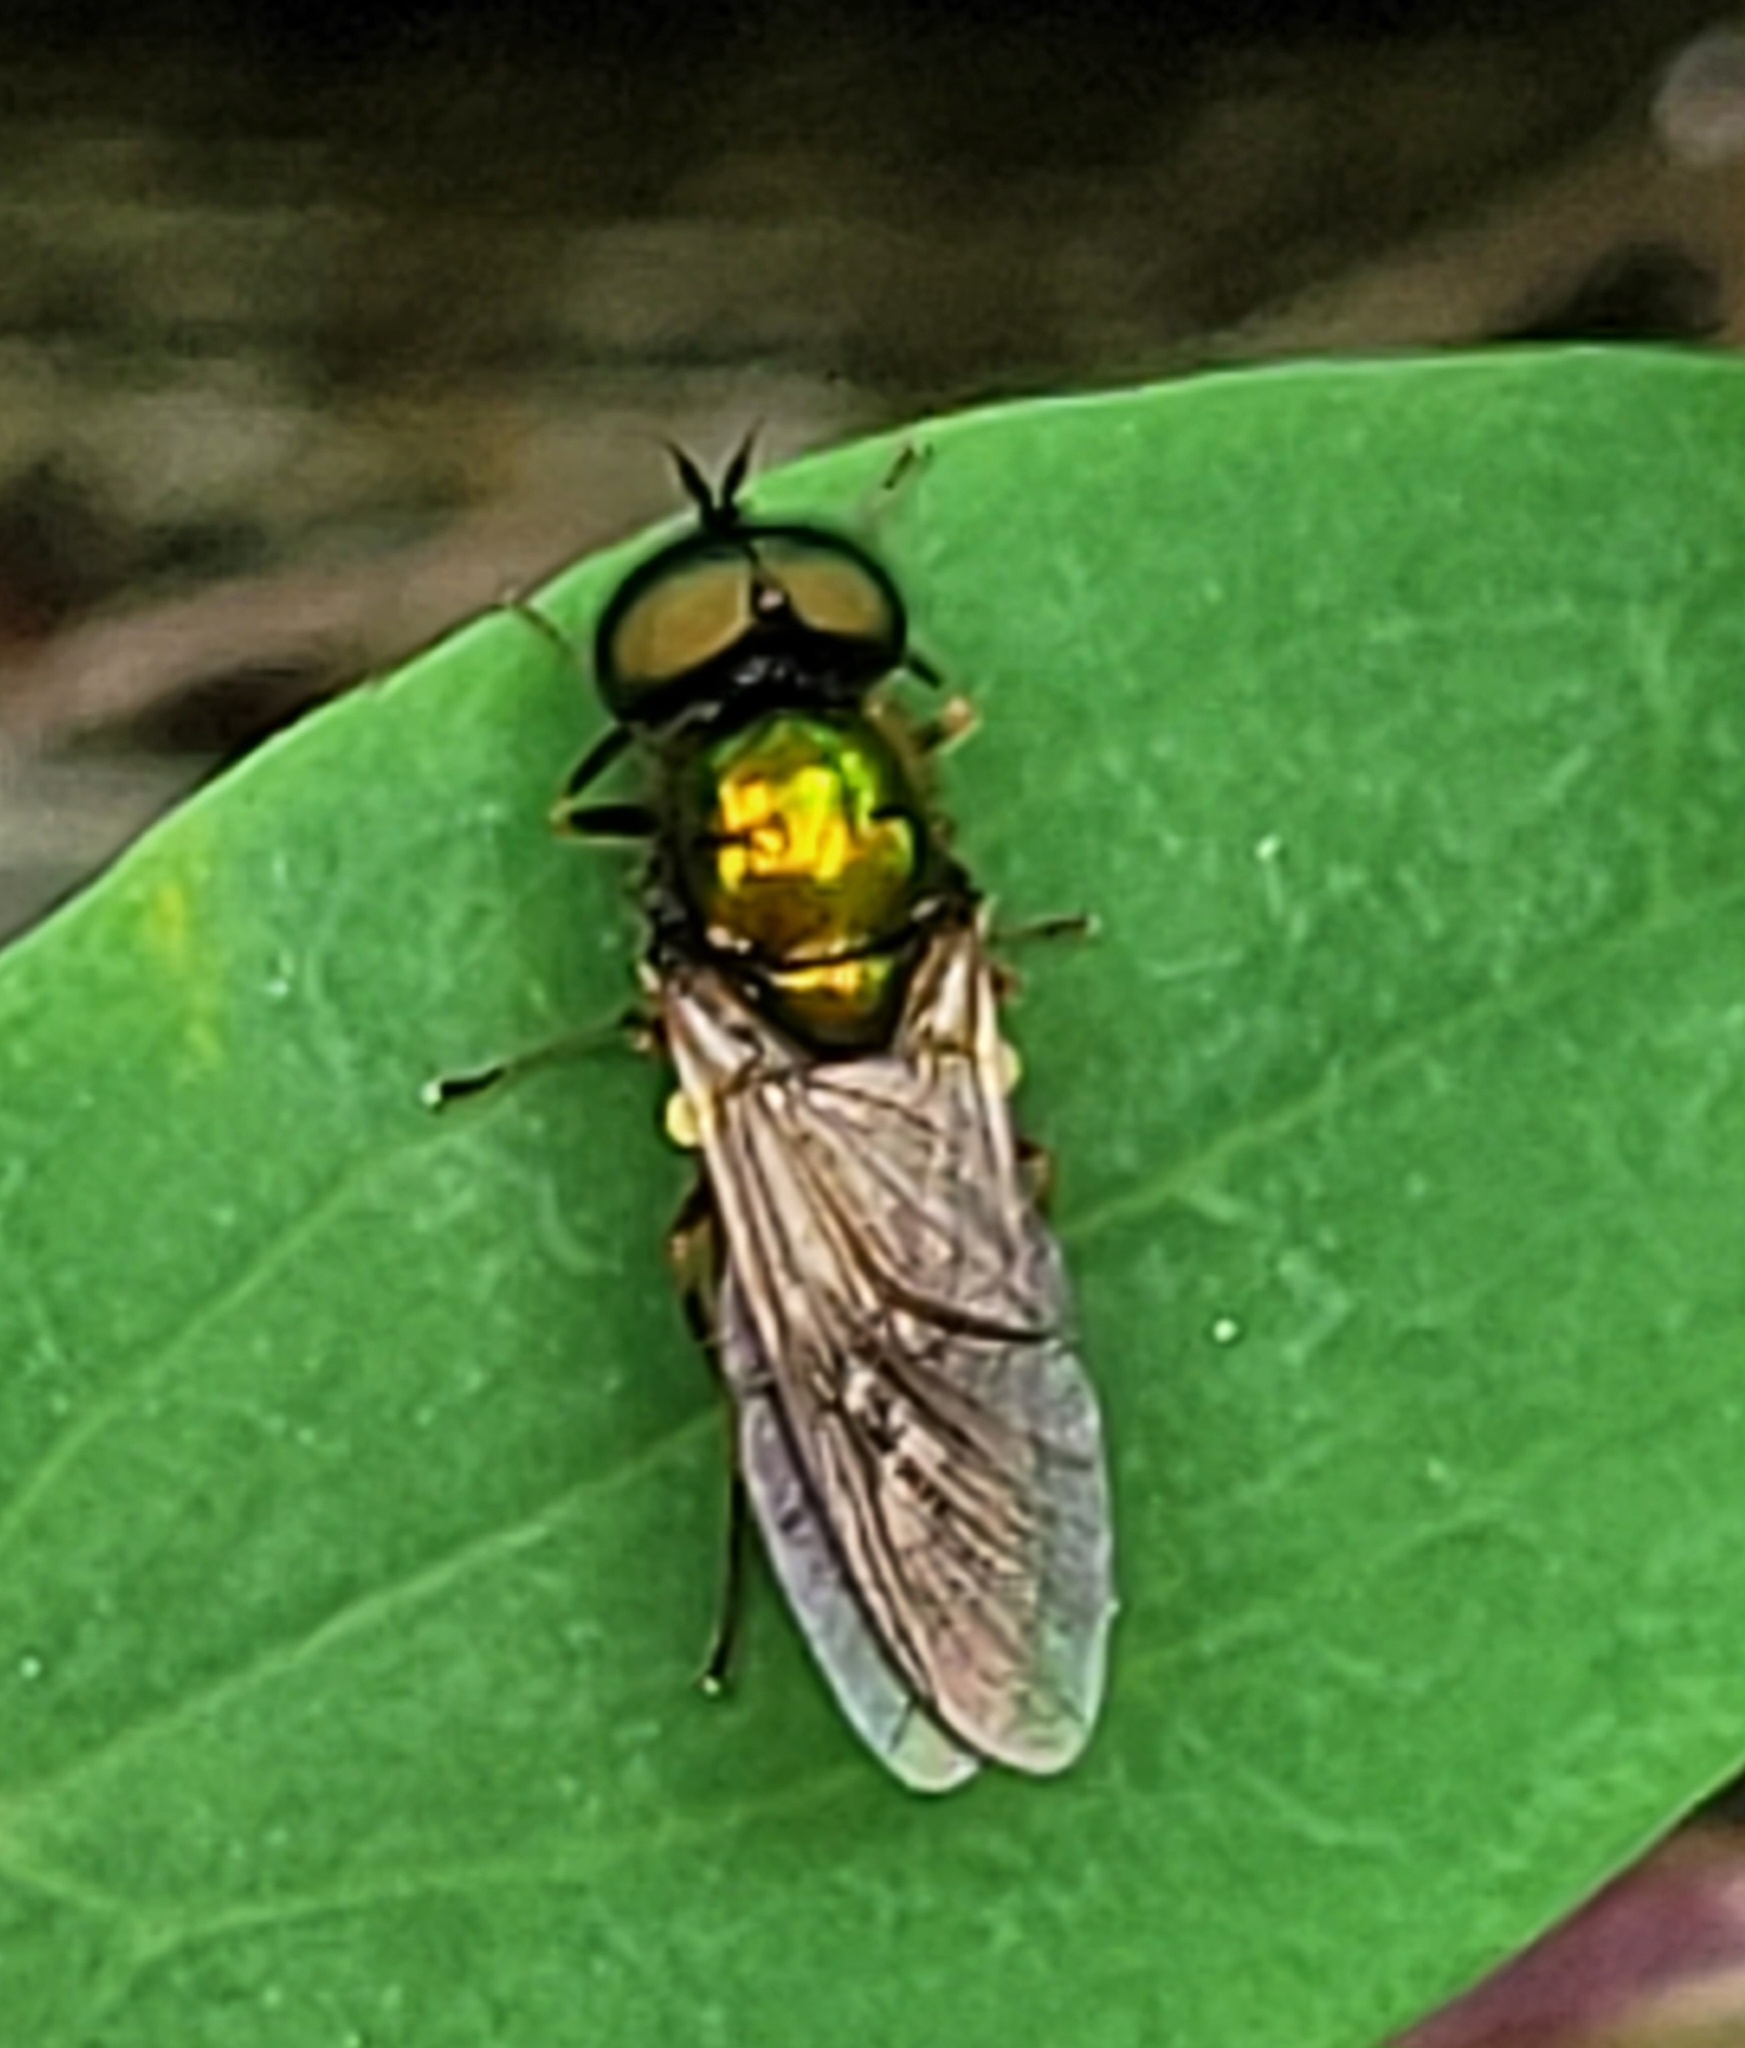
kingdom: Animalia
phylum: Arthropoda
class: Insecta
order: Diptera
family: Stratiomyidae
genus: Chloromyia
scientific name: Chloromyia formosa
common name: Soldier fly
